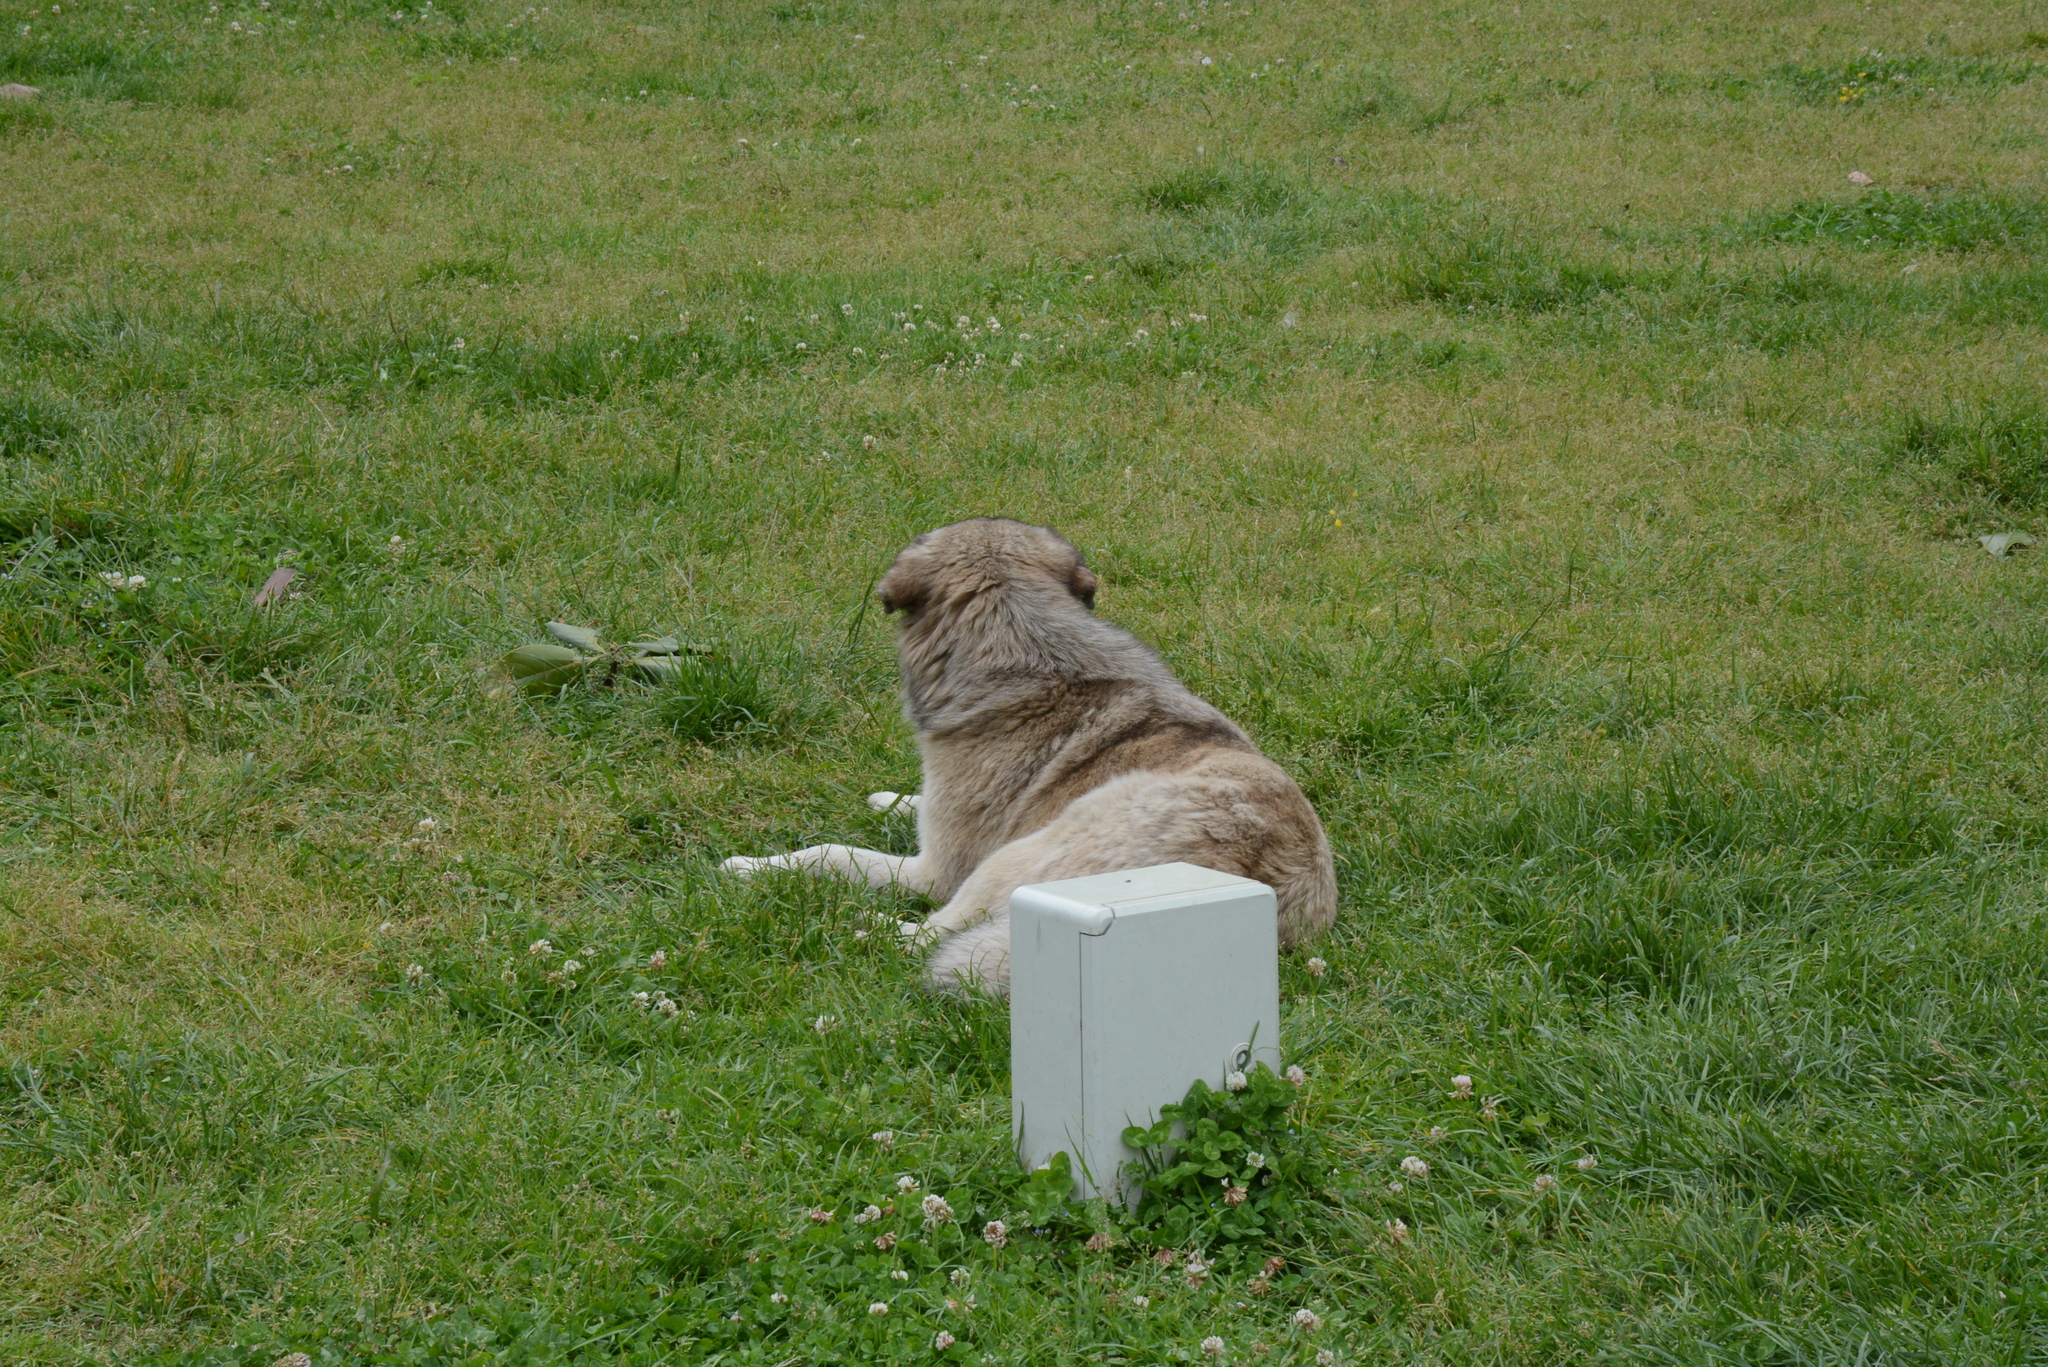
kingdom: Animalia
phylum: Chordata
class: Mammalia
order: Carnivora
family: Canidae
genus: Canis
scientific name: Canis lupus
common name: Gray wolf
